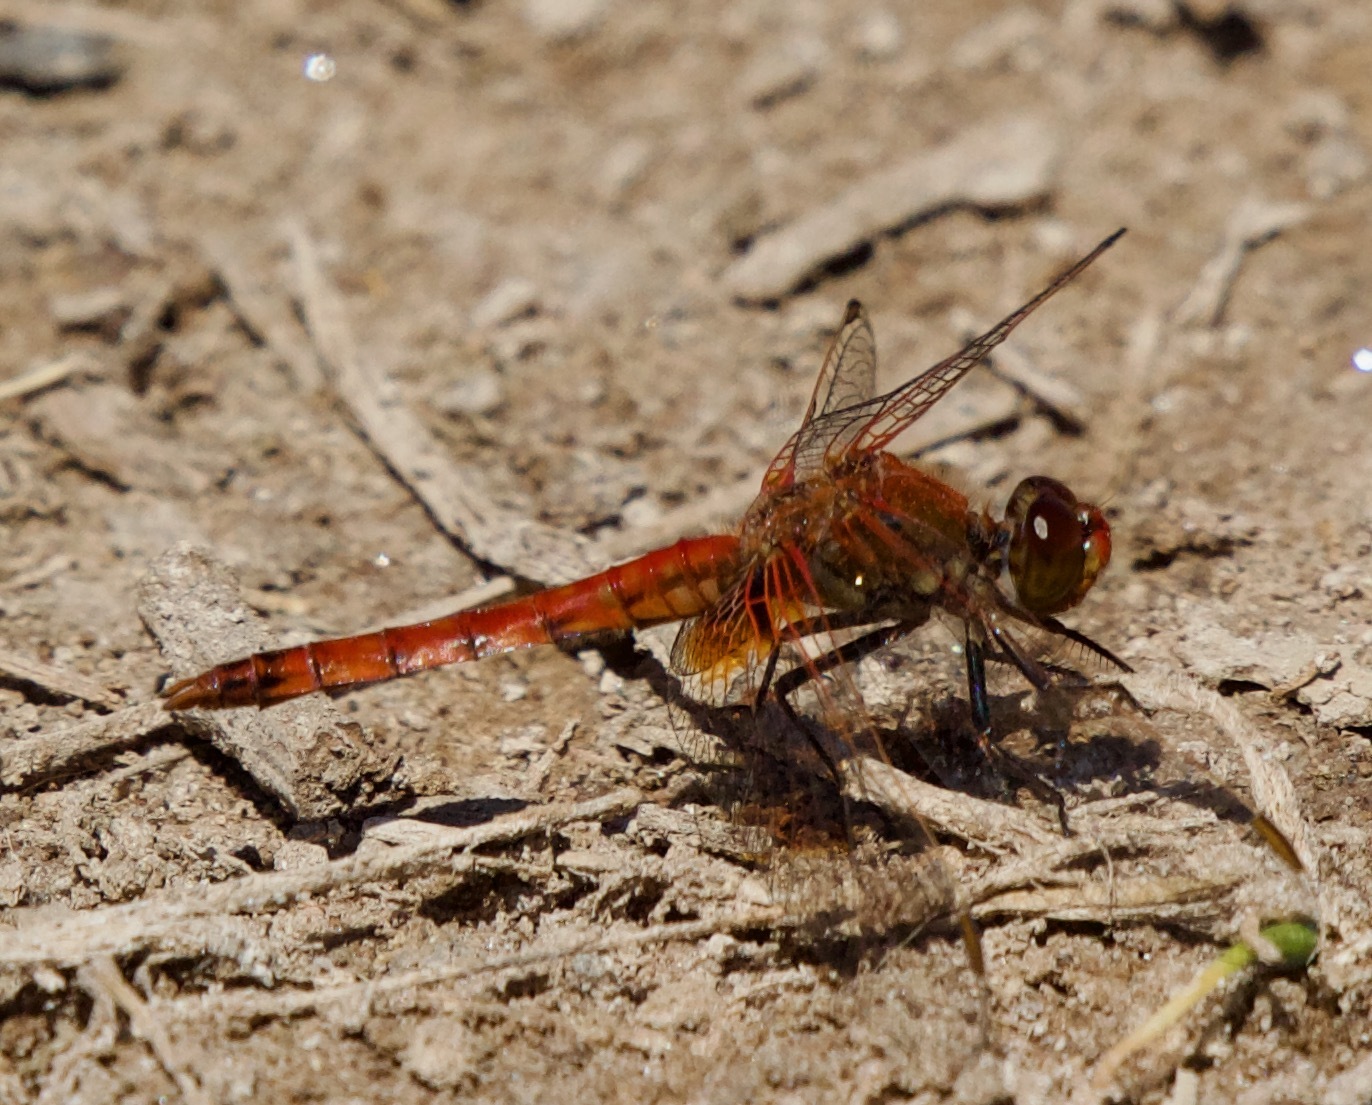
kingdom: Animalia
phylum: Arthropoda
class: Insecta
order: Odonata
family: Libellulidae
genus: Erythrodiplax
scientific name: Erythrodiplax corallina
